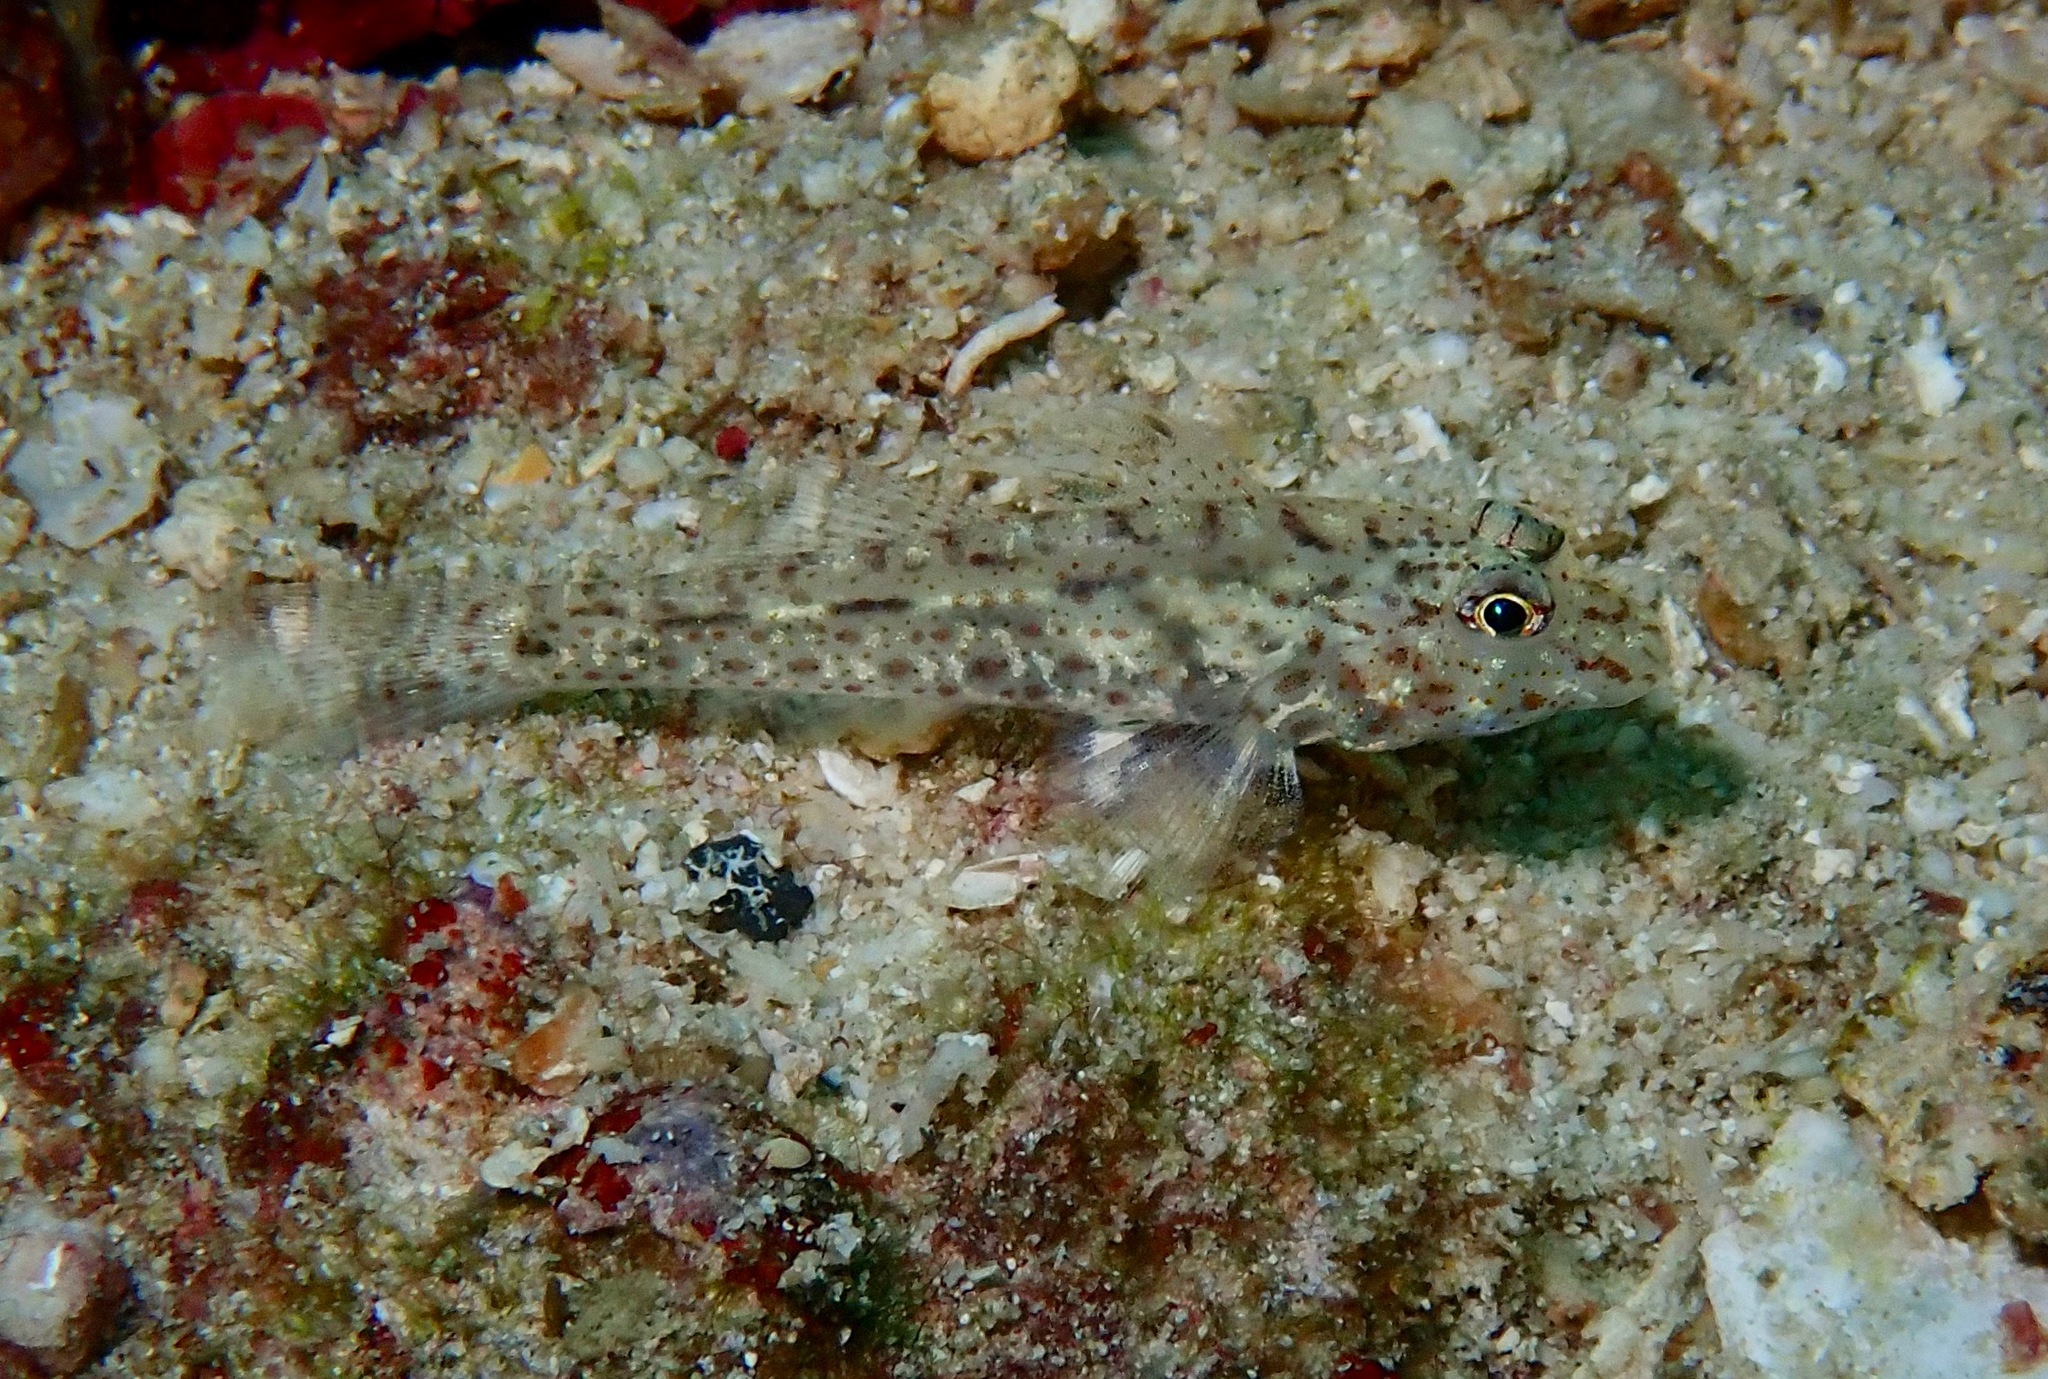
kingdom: Animalia
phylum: Chordata
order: Perciformes
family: Gobiidae
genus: Fusigobius
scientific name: Fusigobius neophytus
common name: Sand goby
